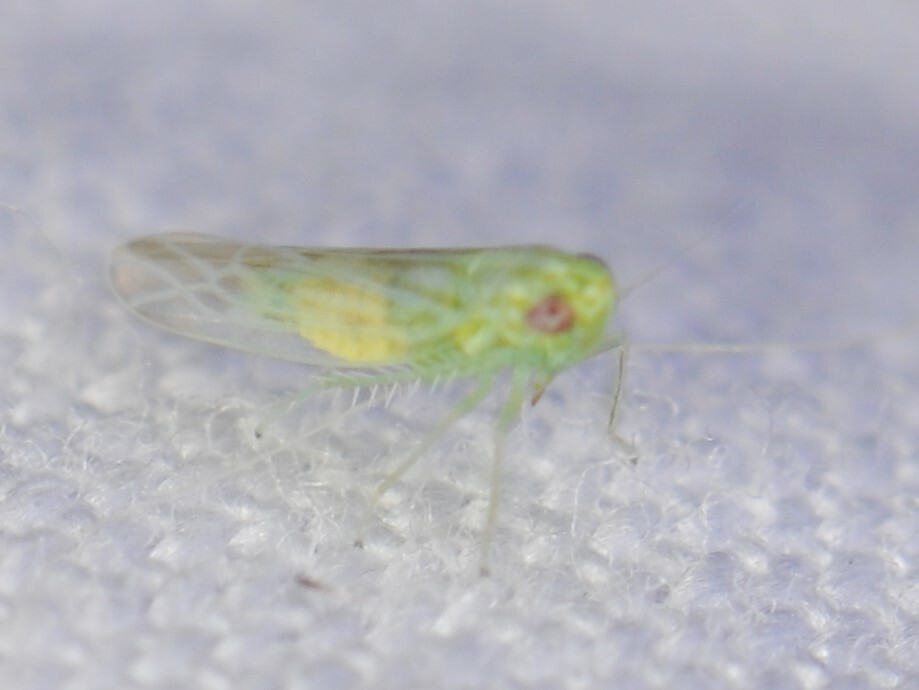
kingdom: Animalia
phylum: Arthropoda
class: Insecta
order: Hemiptera
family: Cicadellidae
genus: Hebata
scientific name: Hebata
